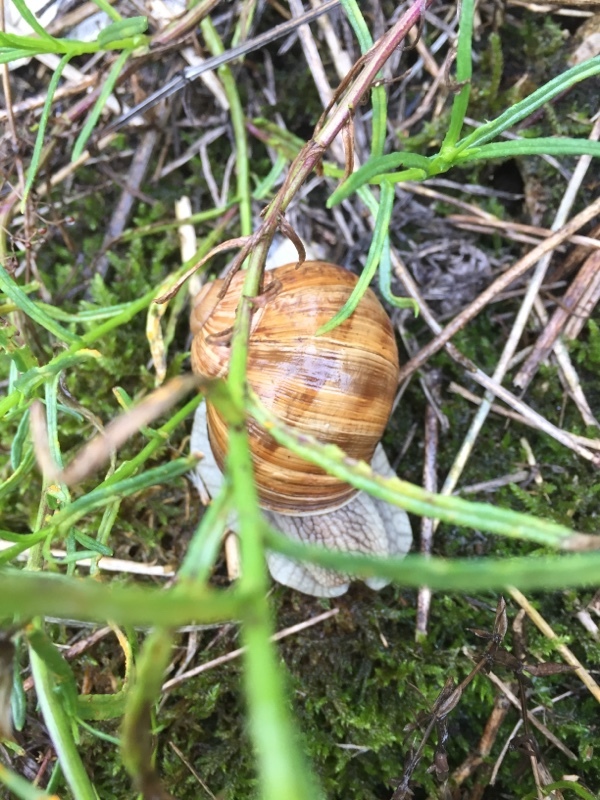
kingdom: Animalia
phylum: Mollusca
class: Gastropoda
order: Stylommatophora
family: Helicidae
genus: Helix
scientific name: Helix pomatia
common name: Roman snail
